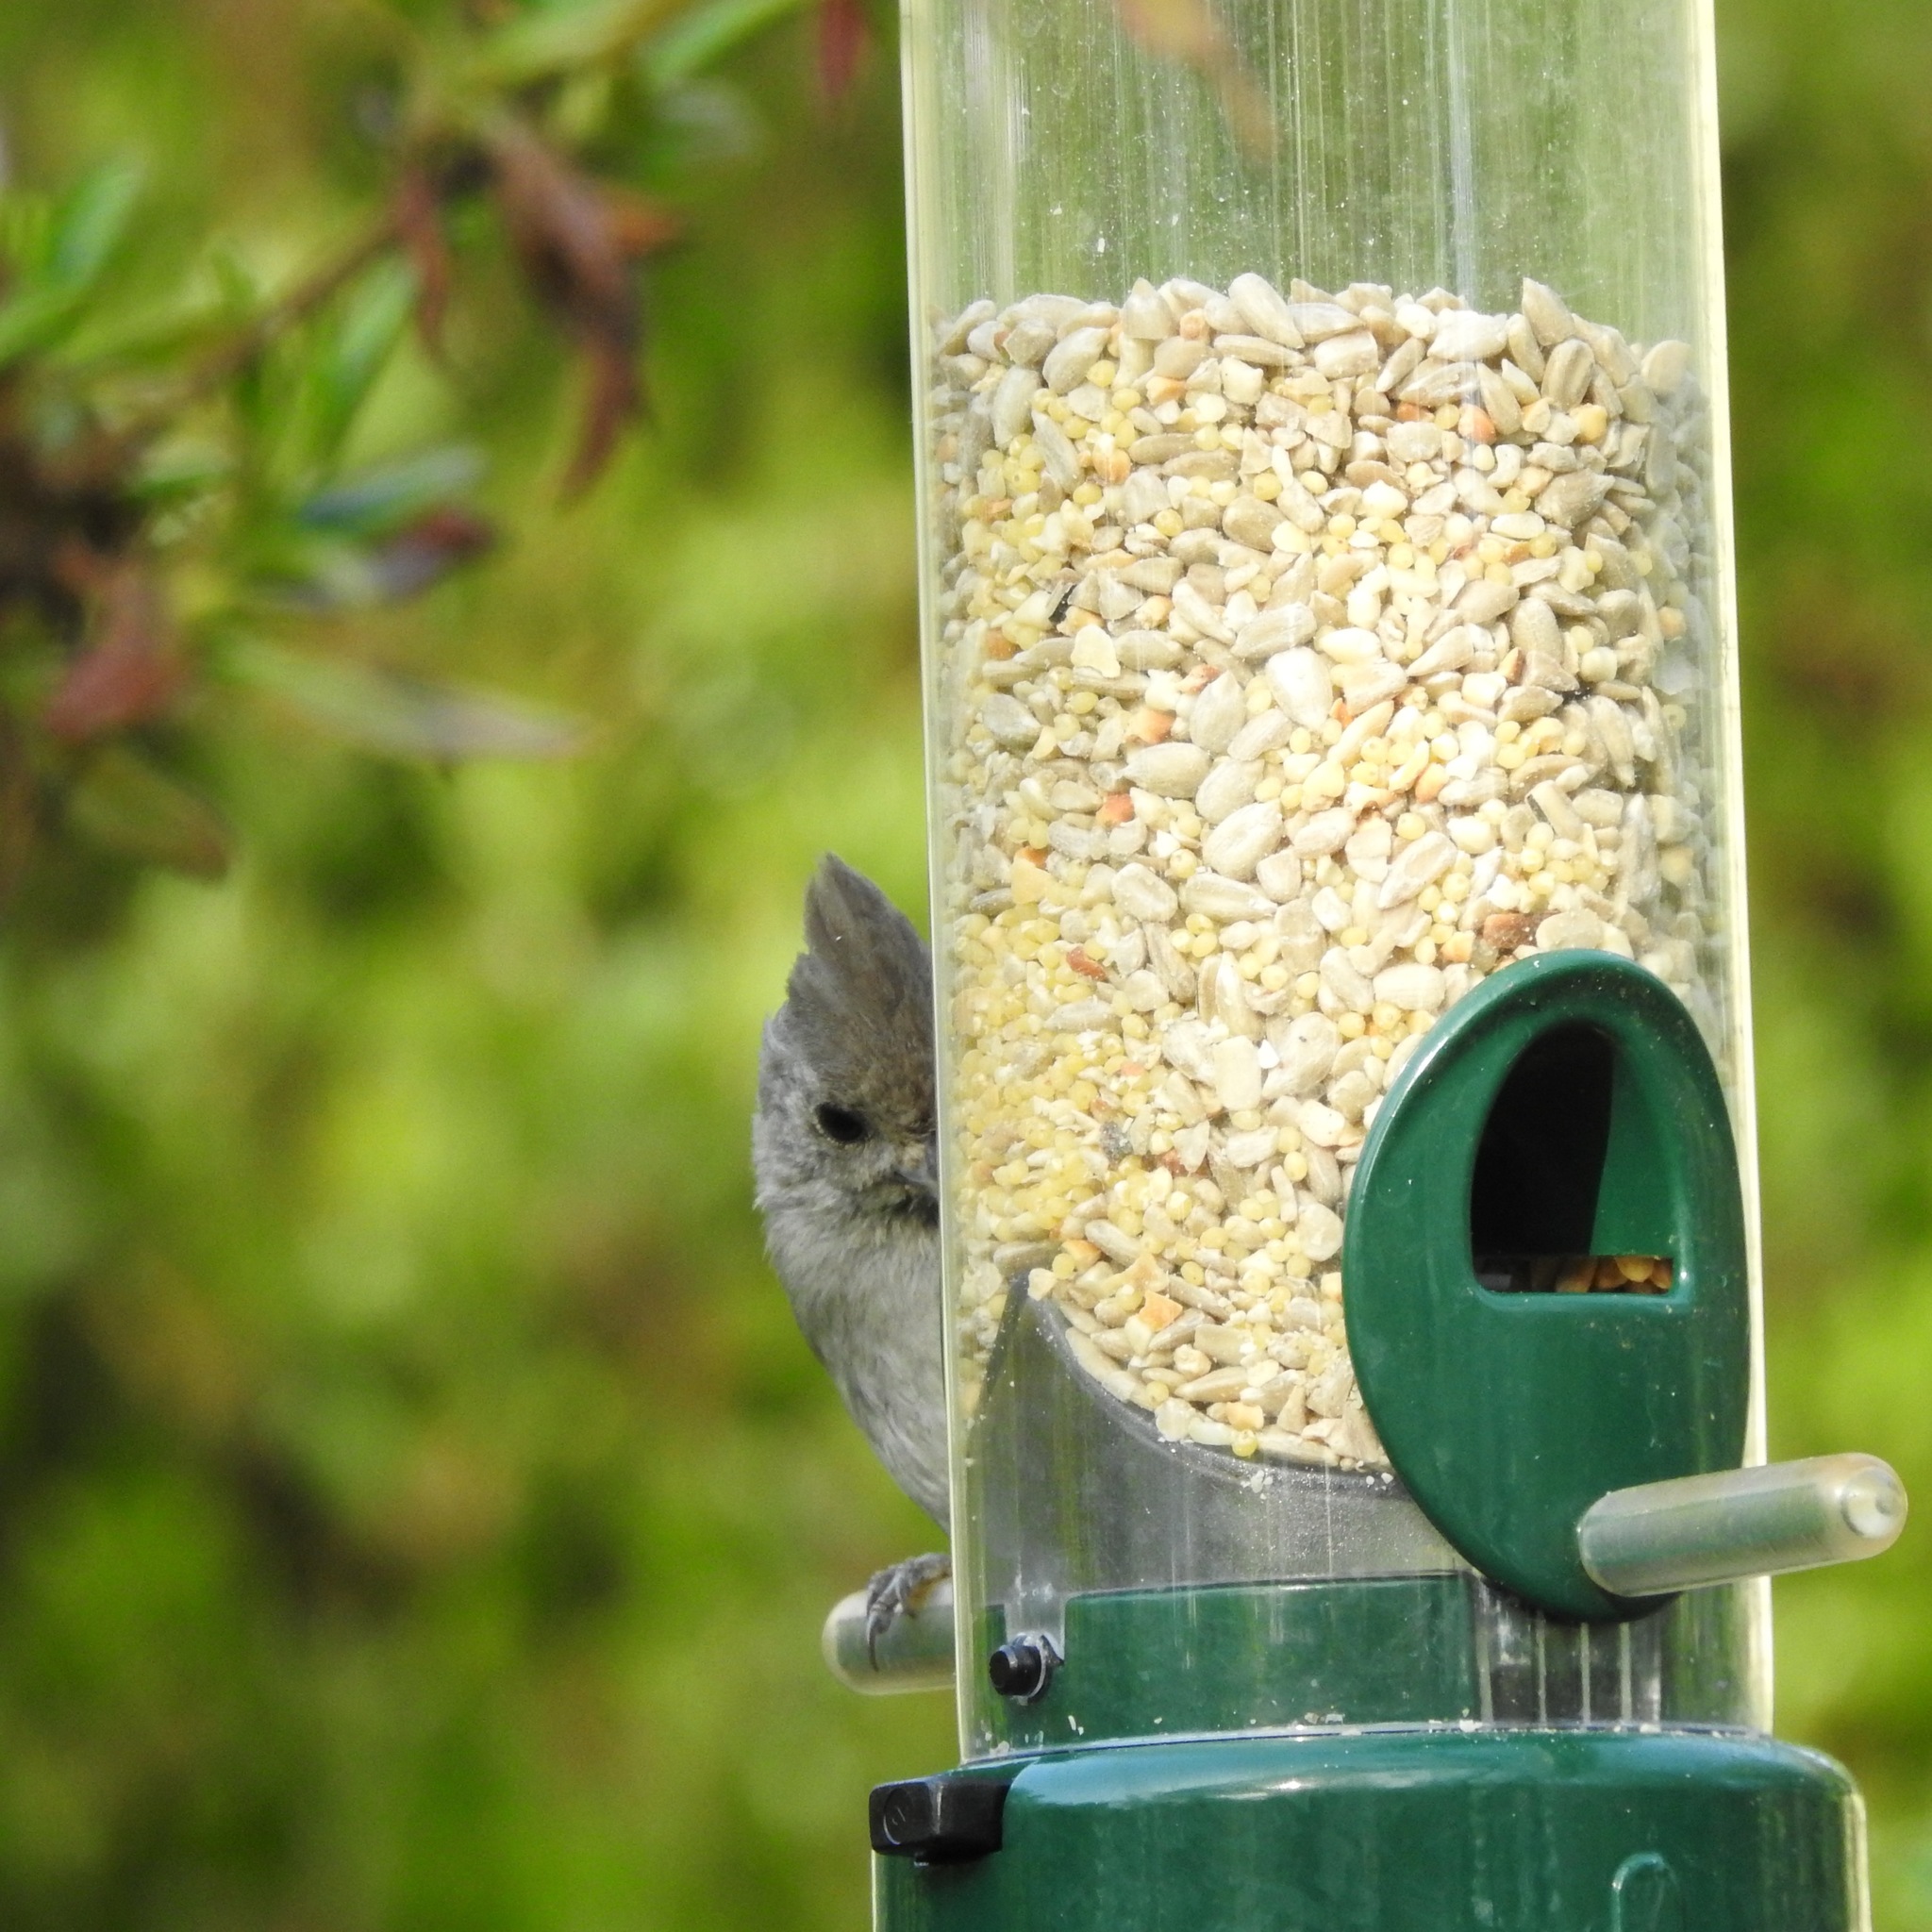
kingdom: Animalia
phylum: Chordata
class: Aves
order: Passeriformes
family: Paridae
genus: Baeolophus
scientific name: Baeolophus inornatus
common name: Oak titmouse
